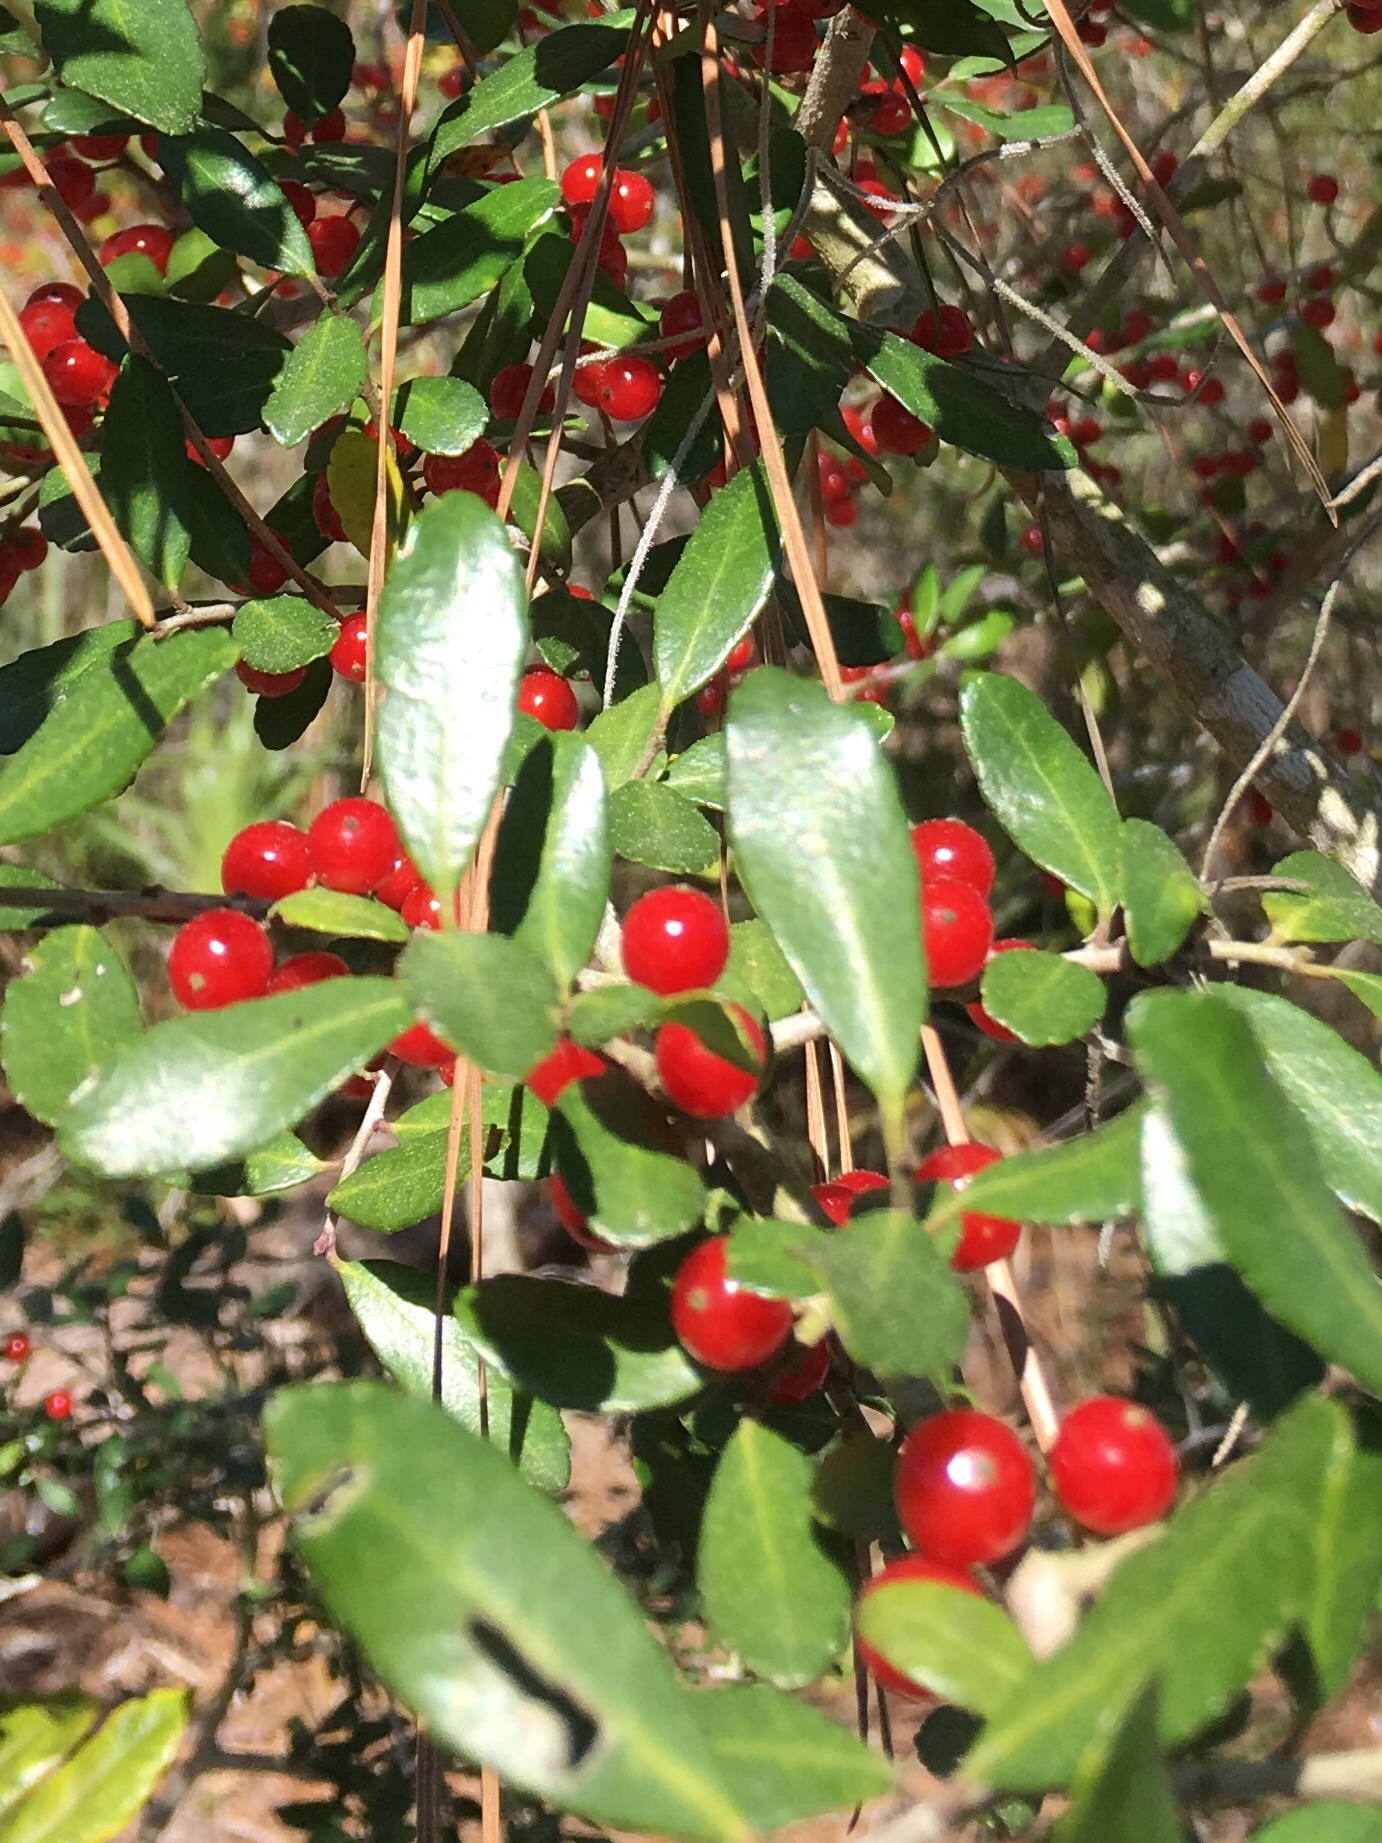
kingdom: Plantae
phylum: Tracheophyta
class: Magnoliopsida
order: Aquifoliales
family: Aquifoliaceae
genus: Ilex
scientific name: Ilex vomitoria
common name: Yaupon holly
